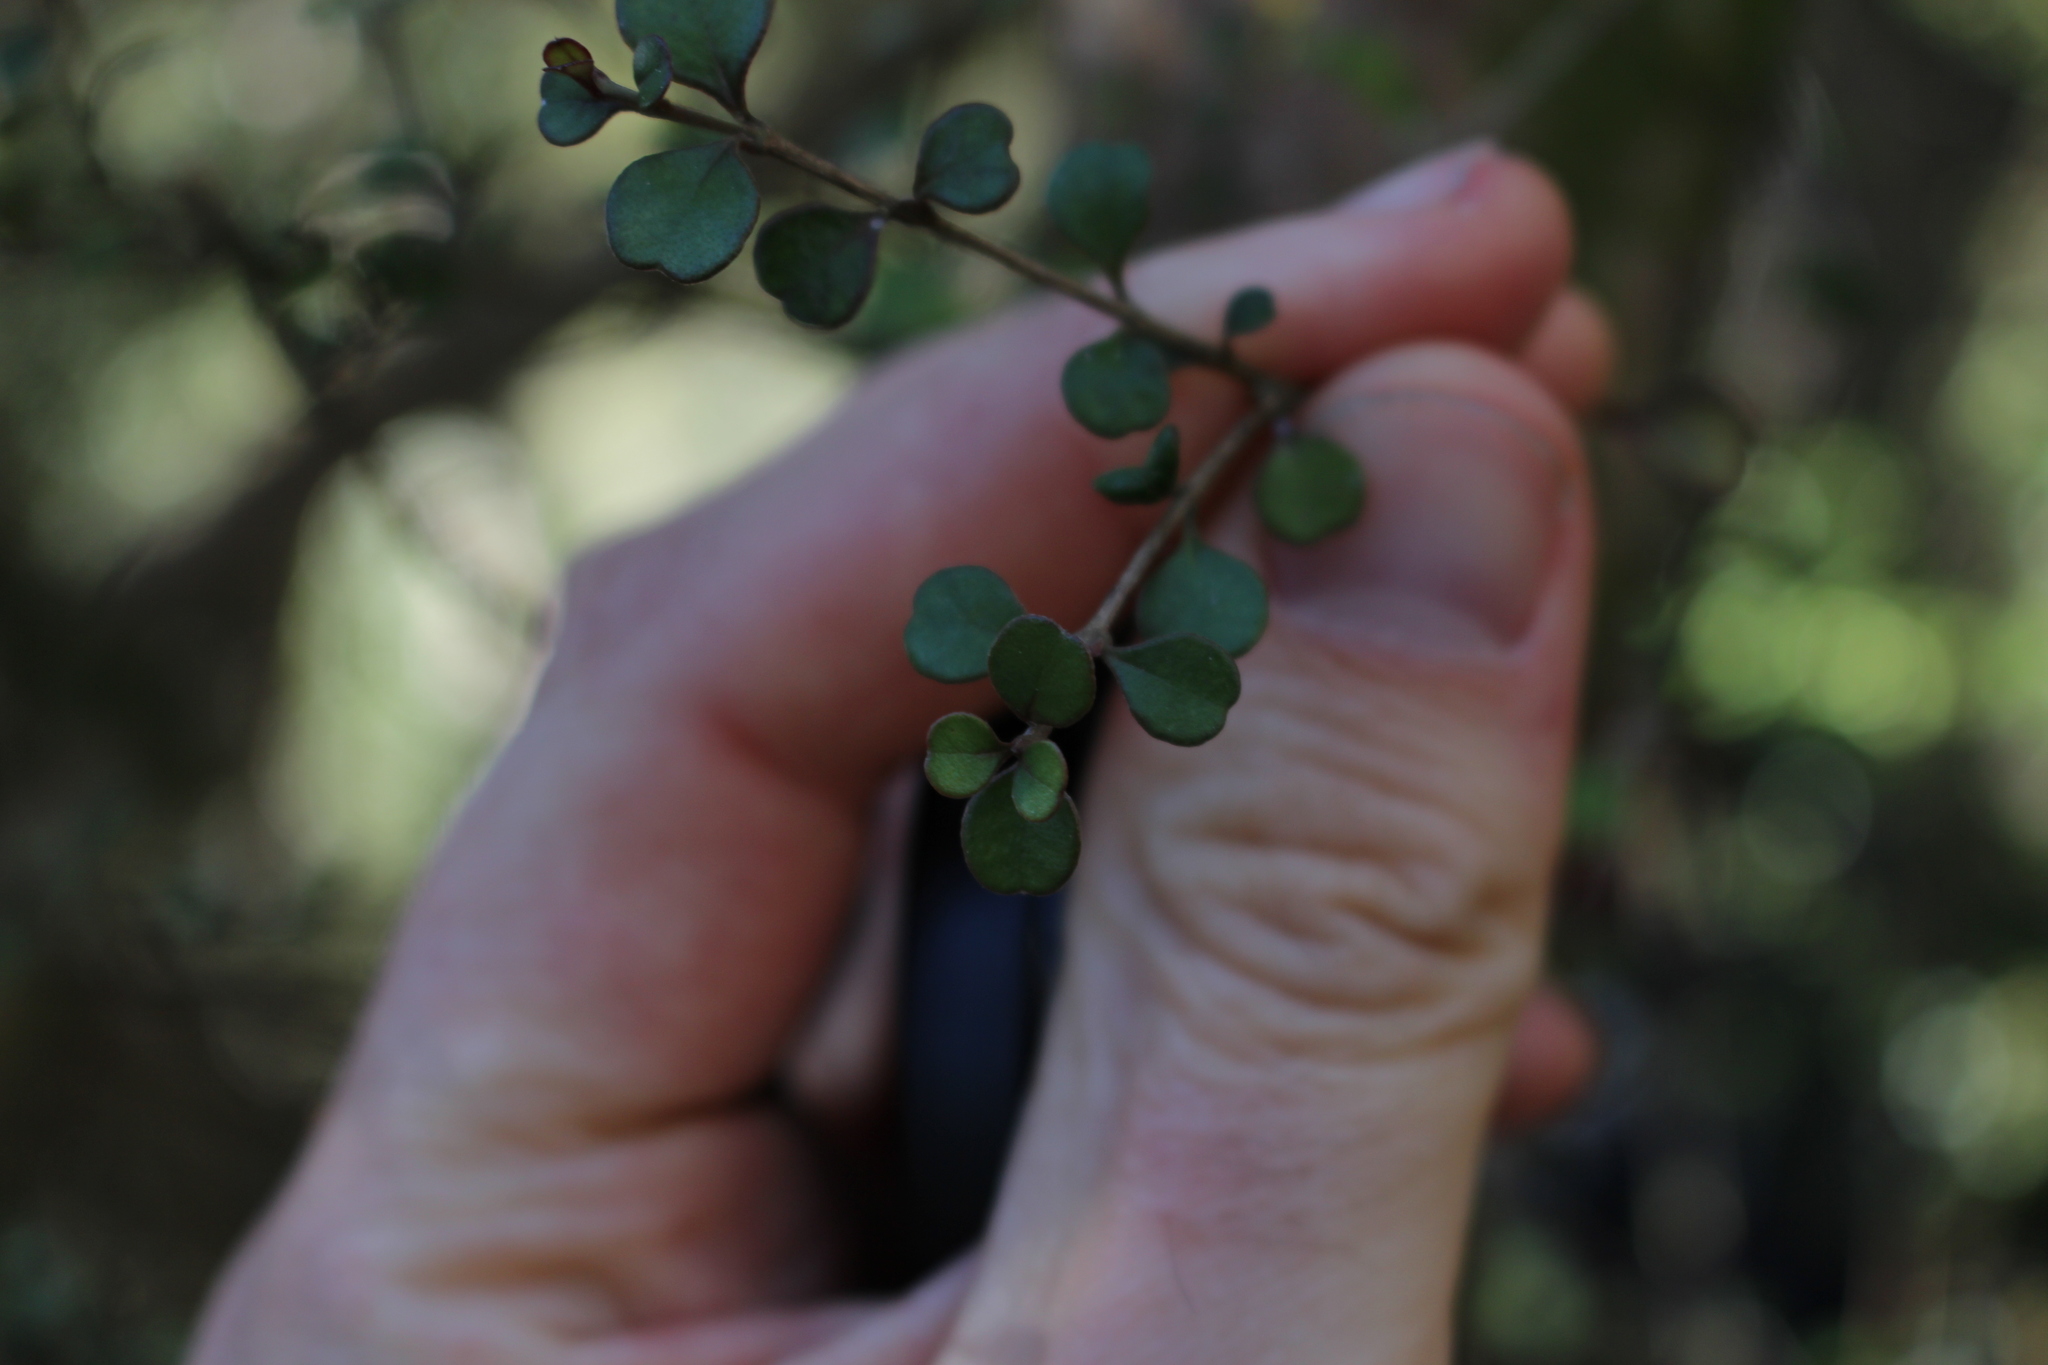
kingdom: Plantae
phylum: Tracheophyta
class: Magnoliopsida
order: Myrtales
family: Myrtaceae
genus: Lophomyrtus
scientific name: Lophomyrtus obcordata
